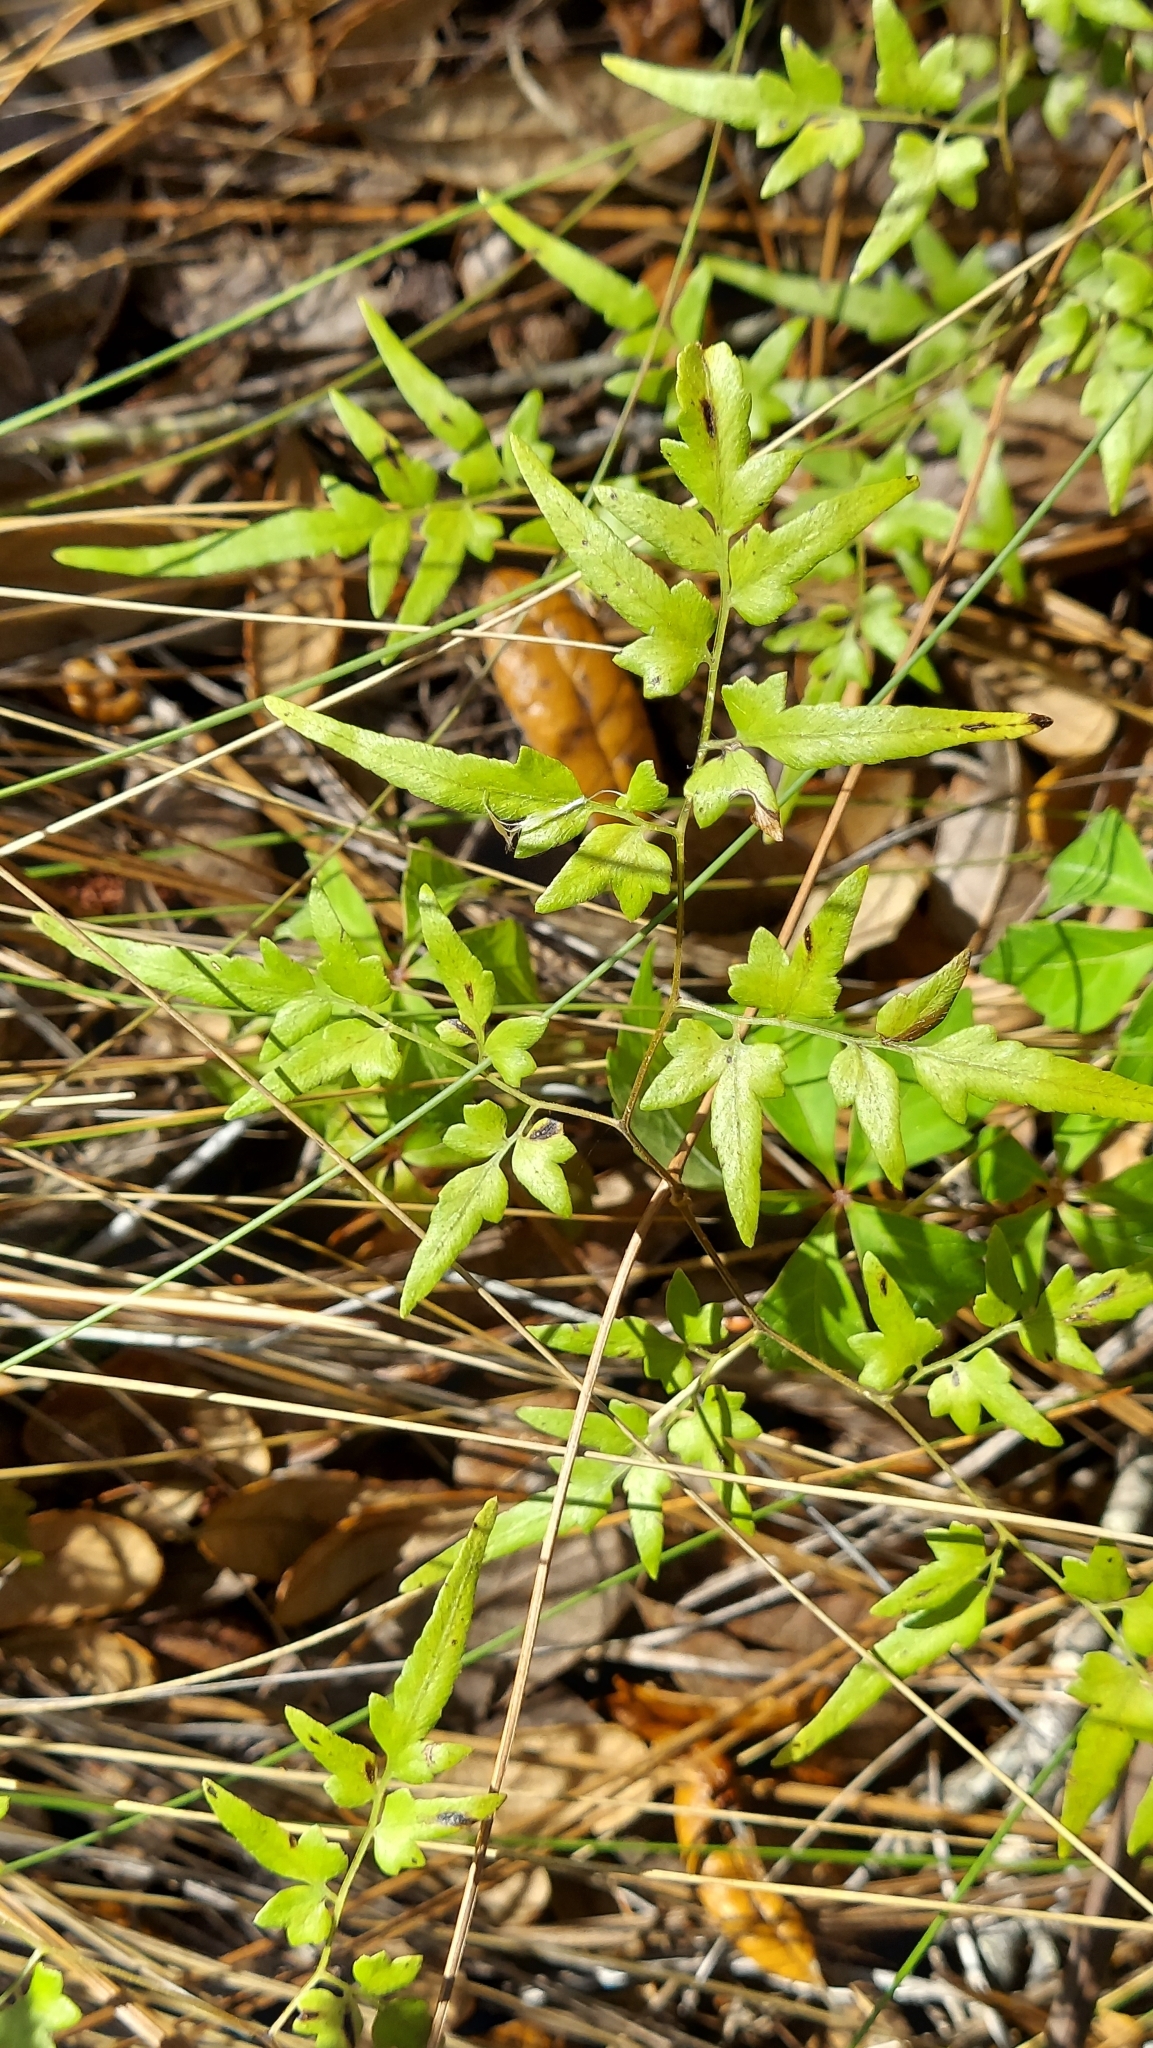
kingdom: Plantae
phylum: Tracheophyta
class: Polypodiopsida
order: Schizaeales
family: Lygodiaceae
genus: Lygodium
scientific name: Lygodium japonicum
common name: Japanese climbing fern
